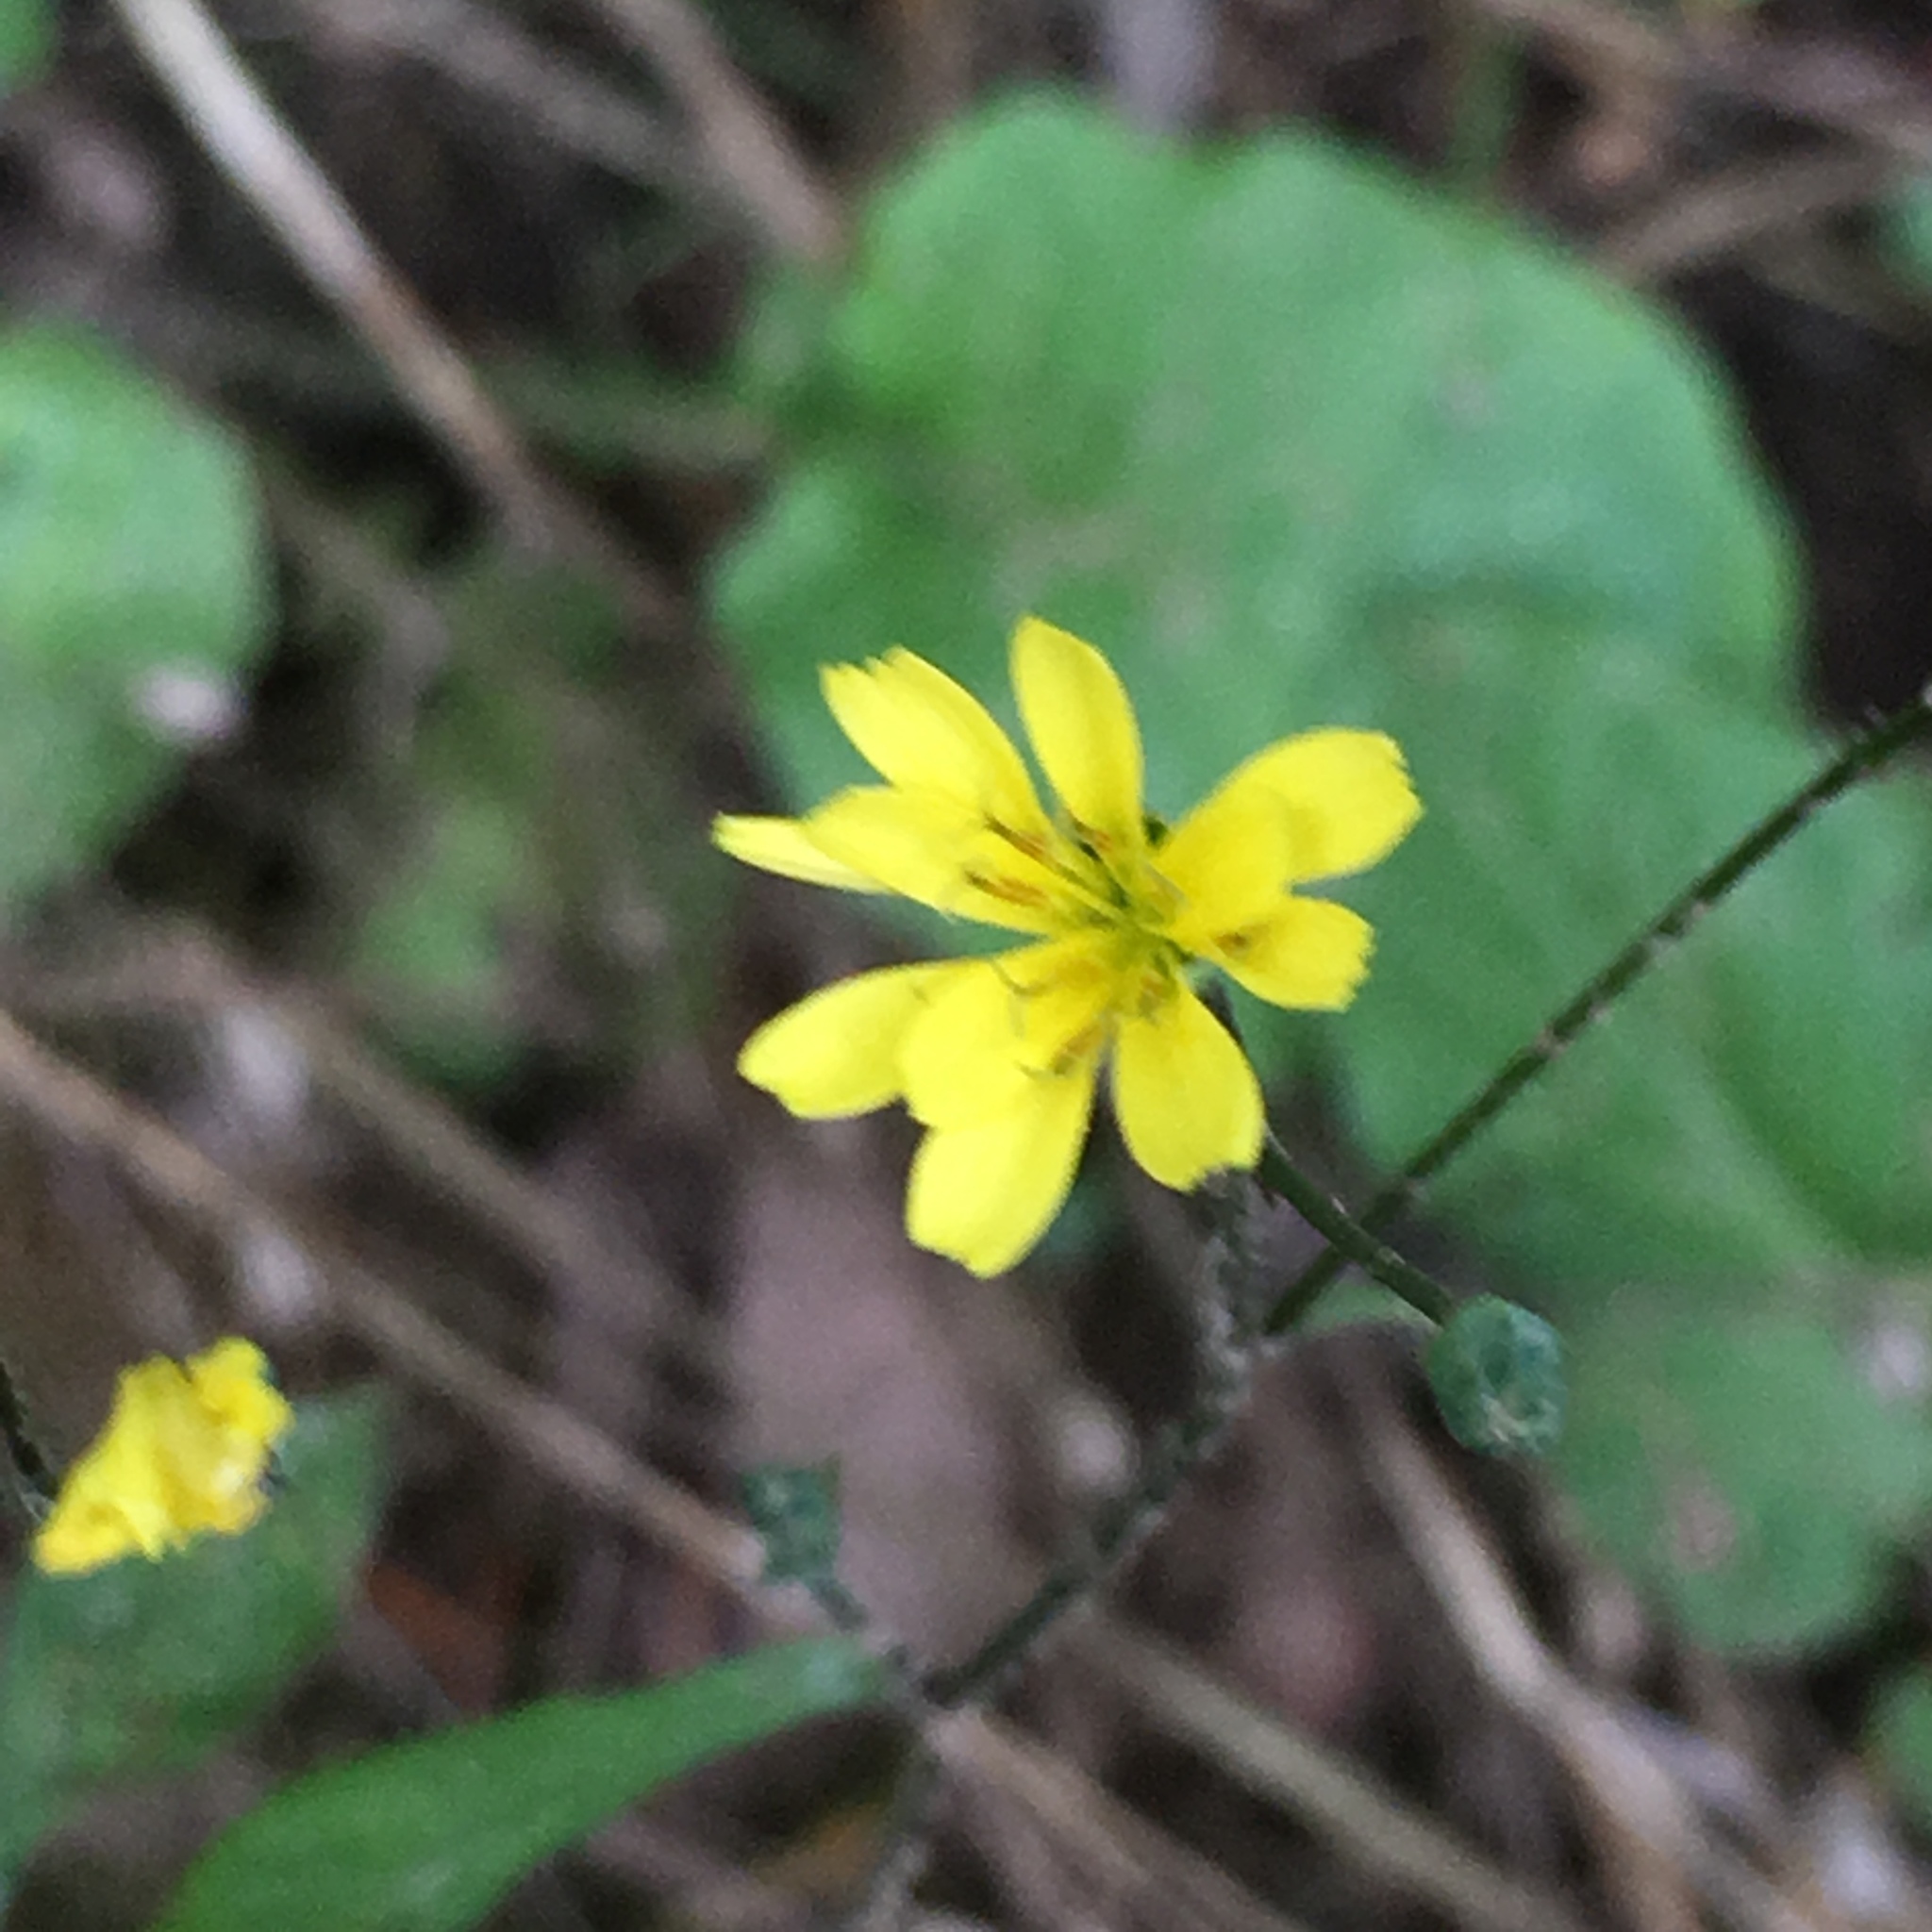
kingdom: Plantae
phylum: Tracheophyta
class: Magnoliopsida
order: Asterales
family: Asteraceae
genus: Lapsana
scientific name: Lapsana communis
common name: Nipplewort
